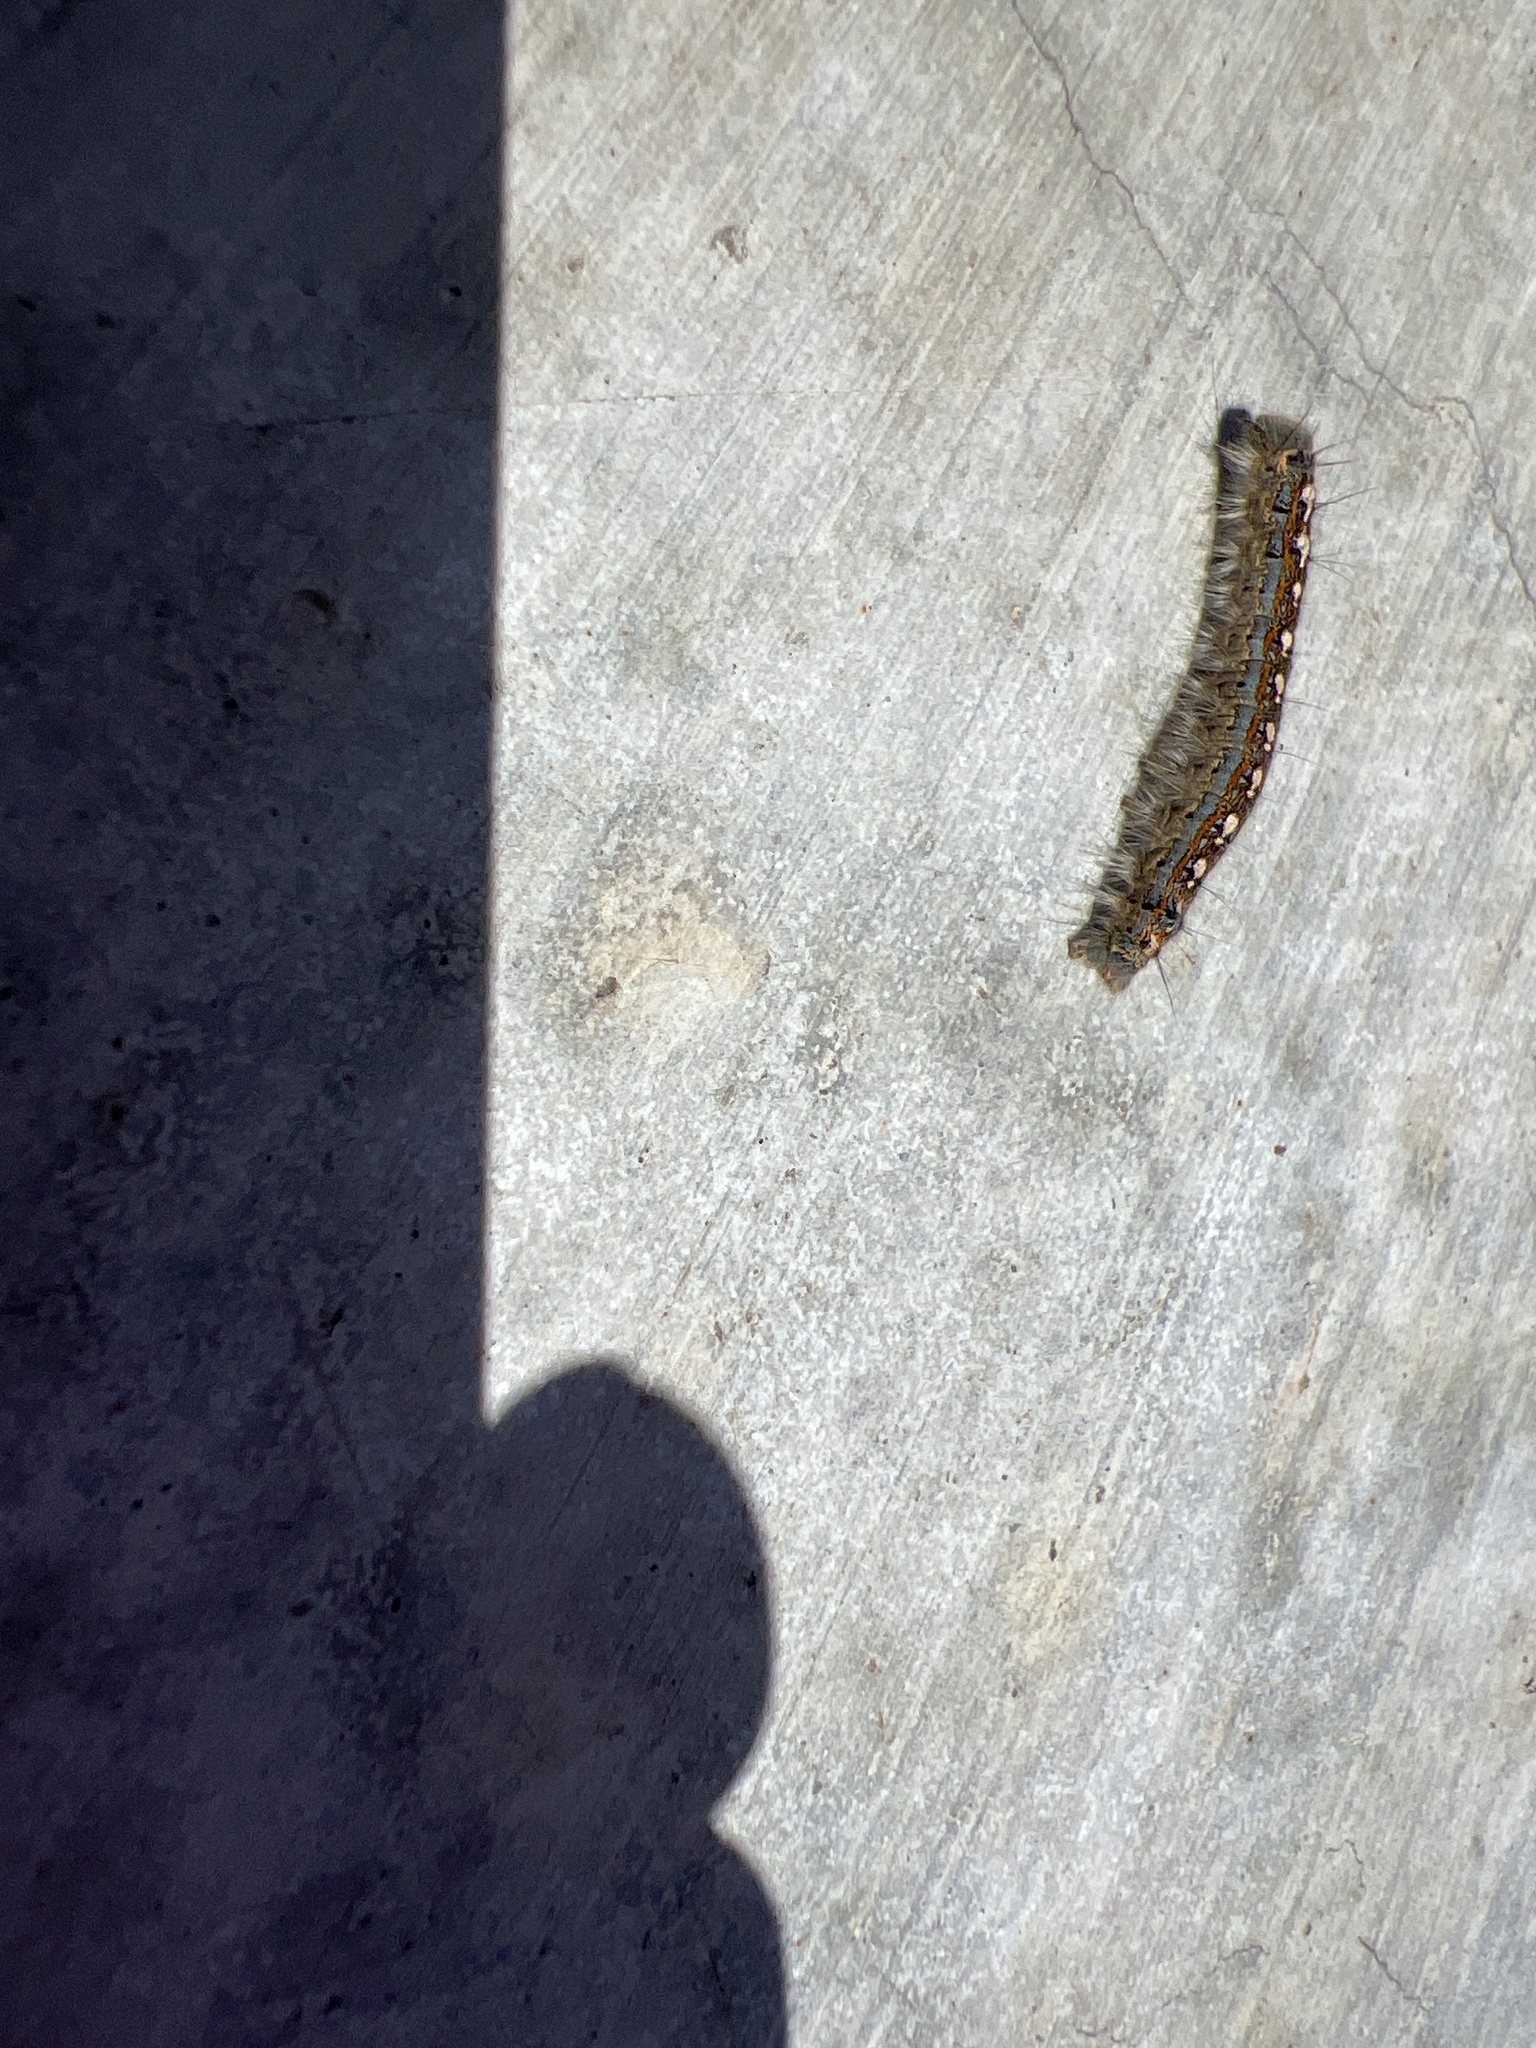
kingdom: Animalia
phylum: Arthropoda
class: Insecta
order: Lepidoptera
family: Lasiocampidae
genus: Malacosoma
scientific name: Malacosoma disstria
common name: Forest tent caterpillar
